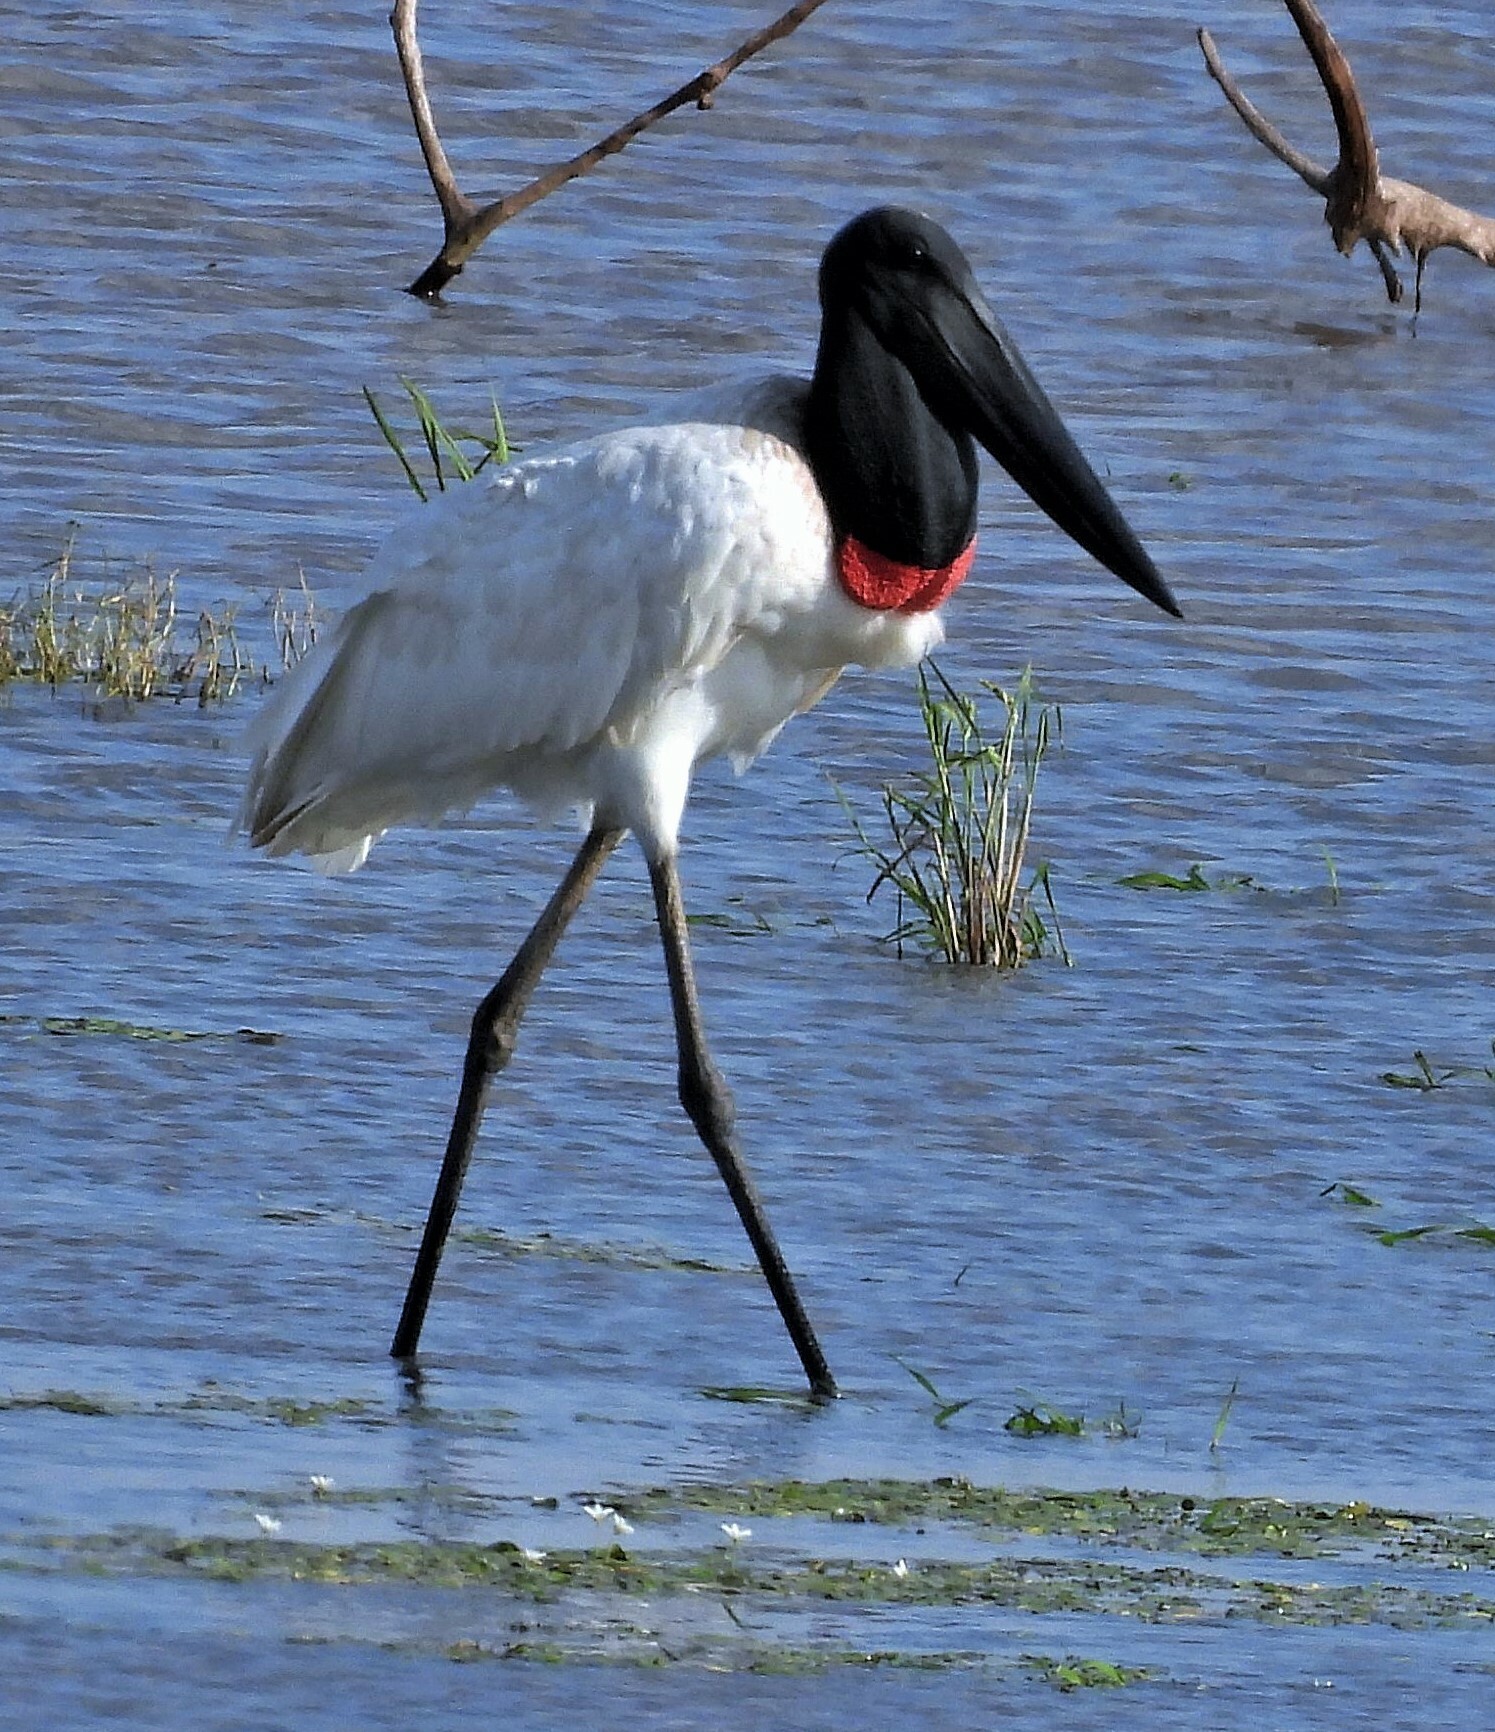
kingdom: Animalia
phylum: Chordata
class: Aves
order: Ciconiiformes
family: Ciconiidae
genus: Jabiru
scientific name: Jabiru mycteria
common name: Jabiru
